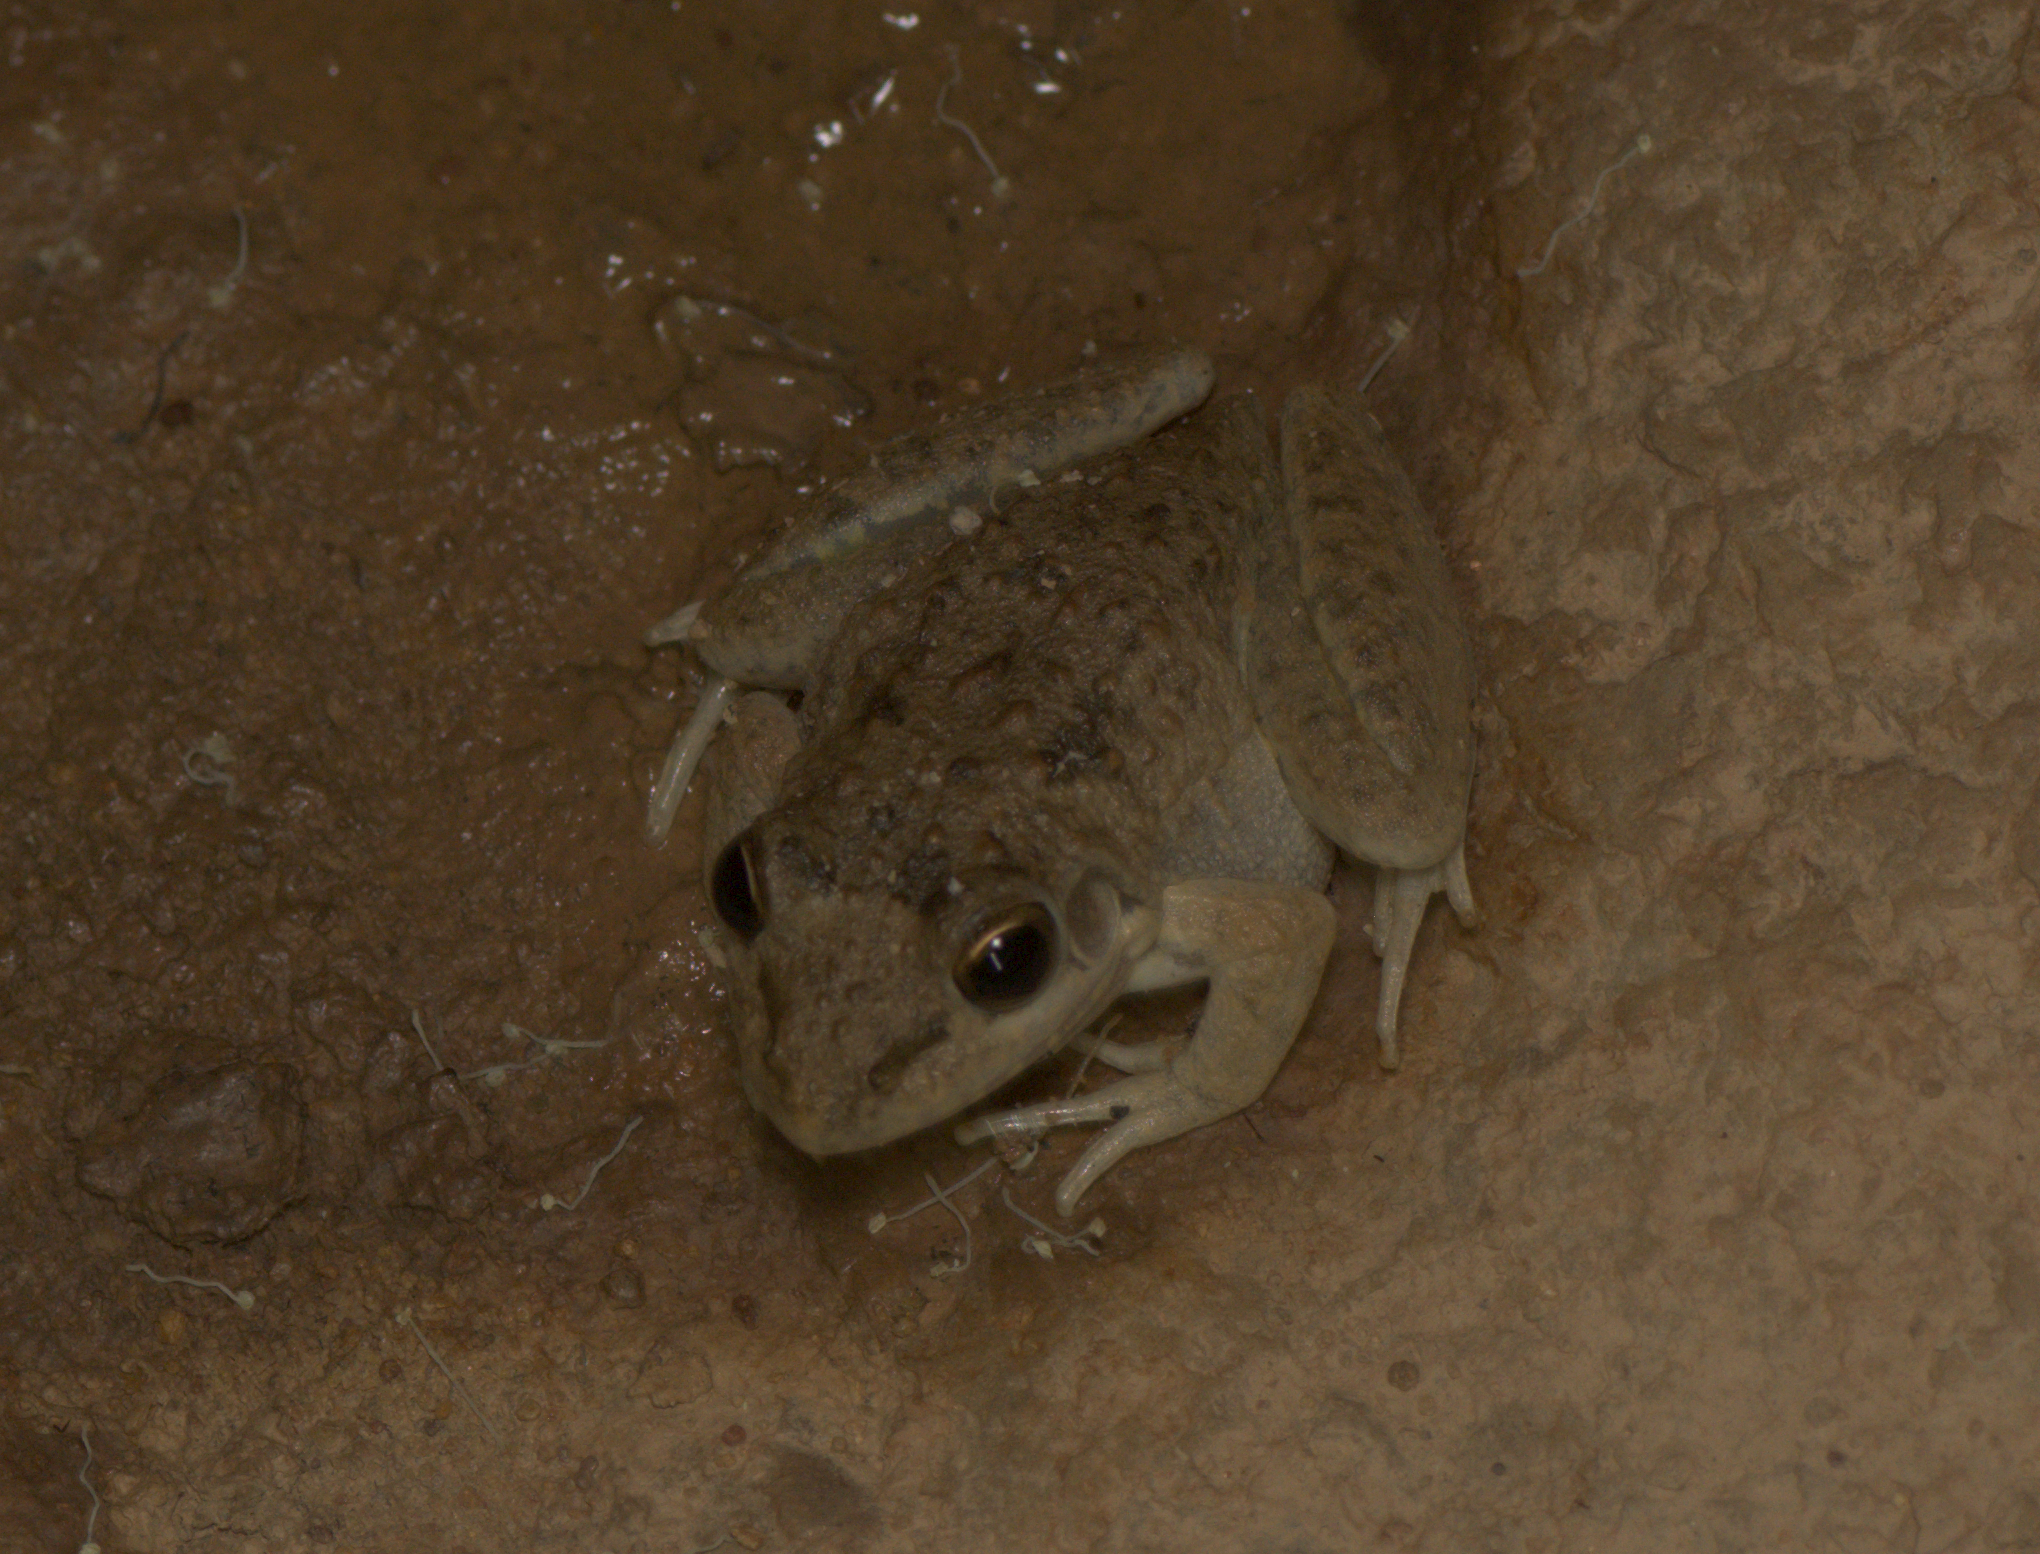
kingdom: Animalia
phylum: Chordata
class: Amphibia
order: Anura
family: Pelodryadidae
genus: Litoria
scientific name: Litoria inermis
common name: Bumpy rocket frog
